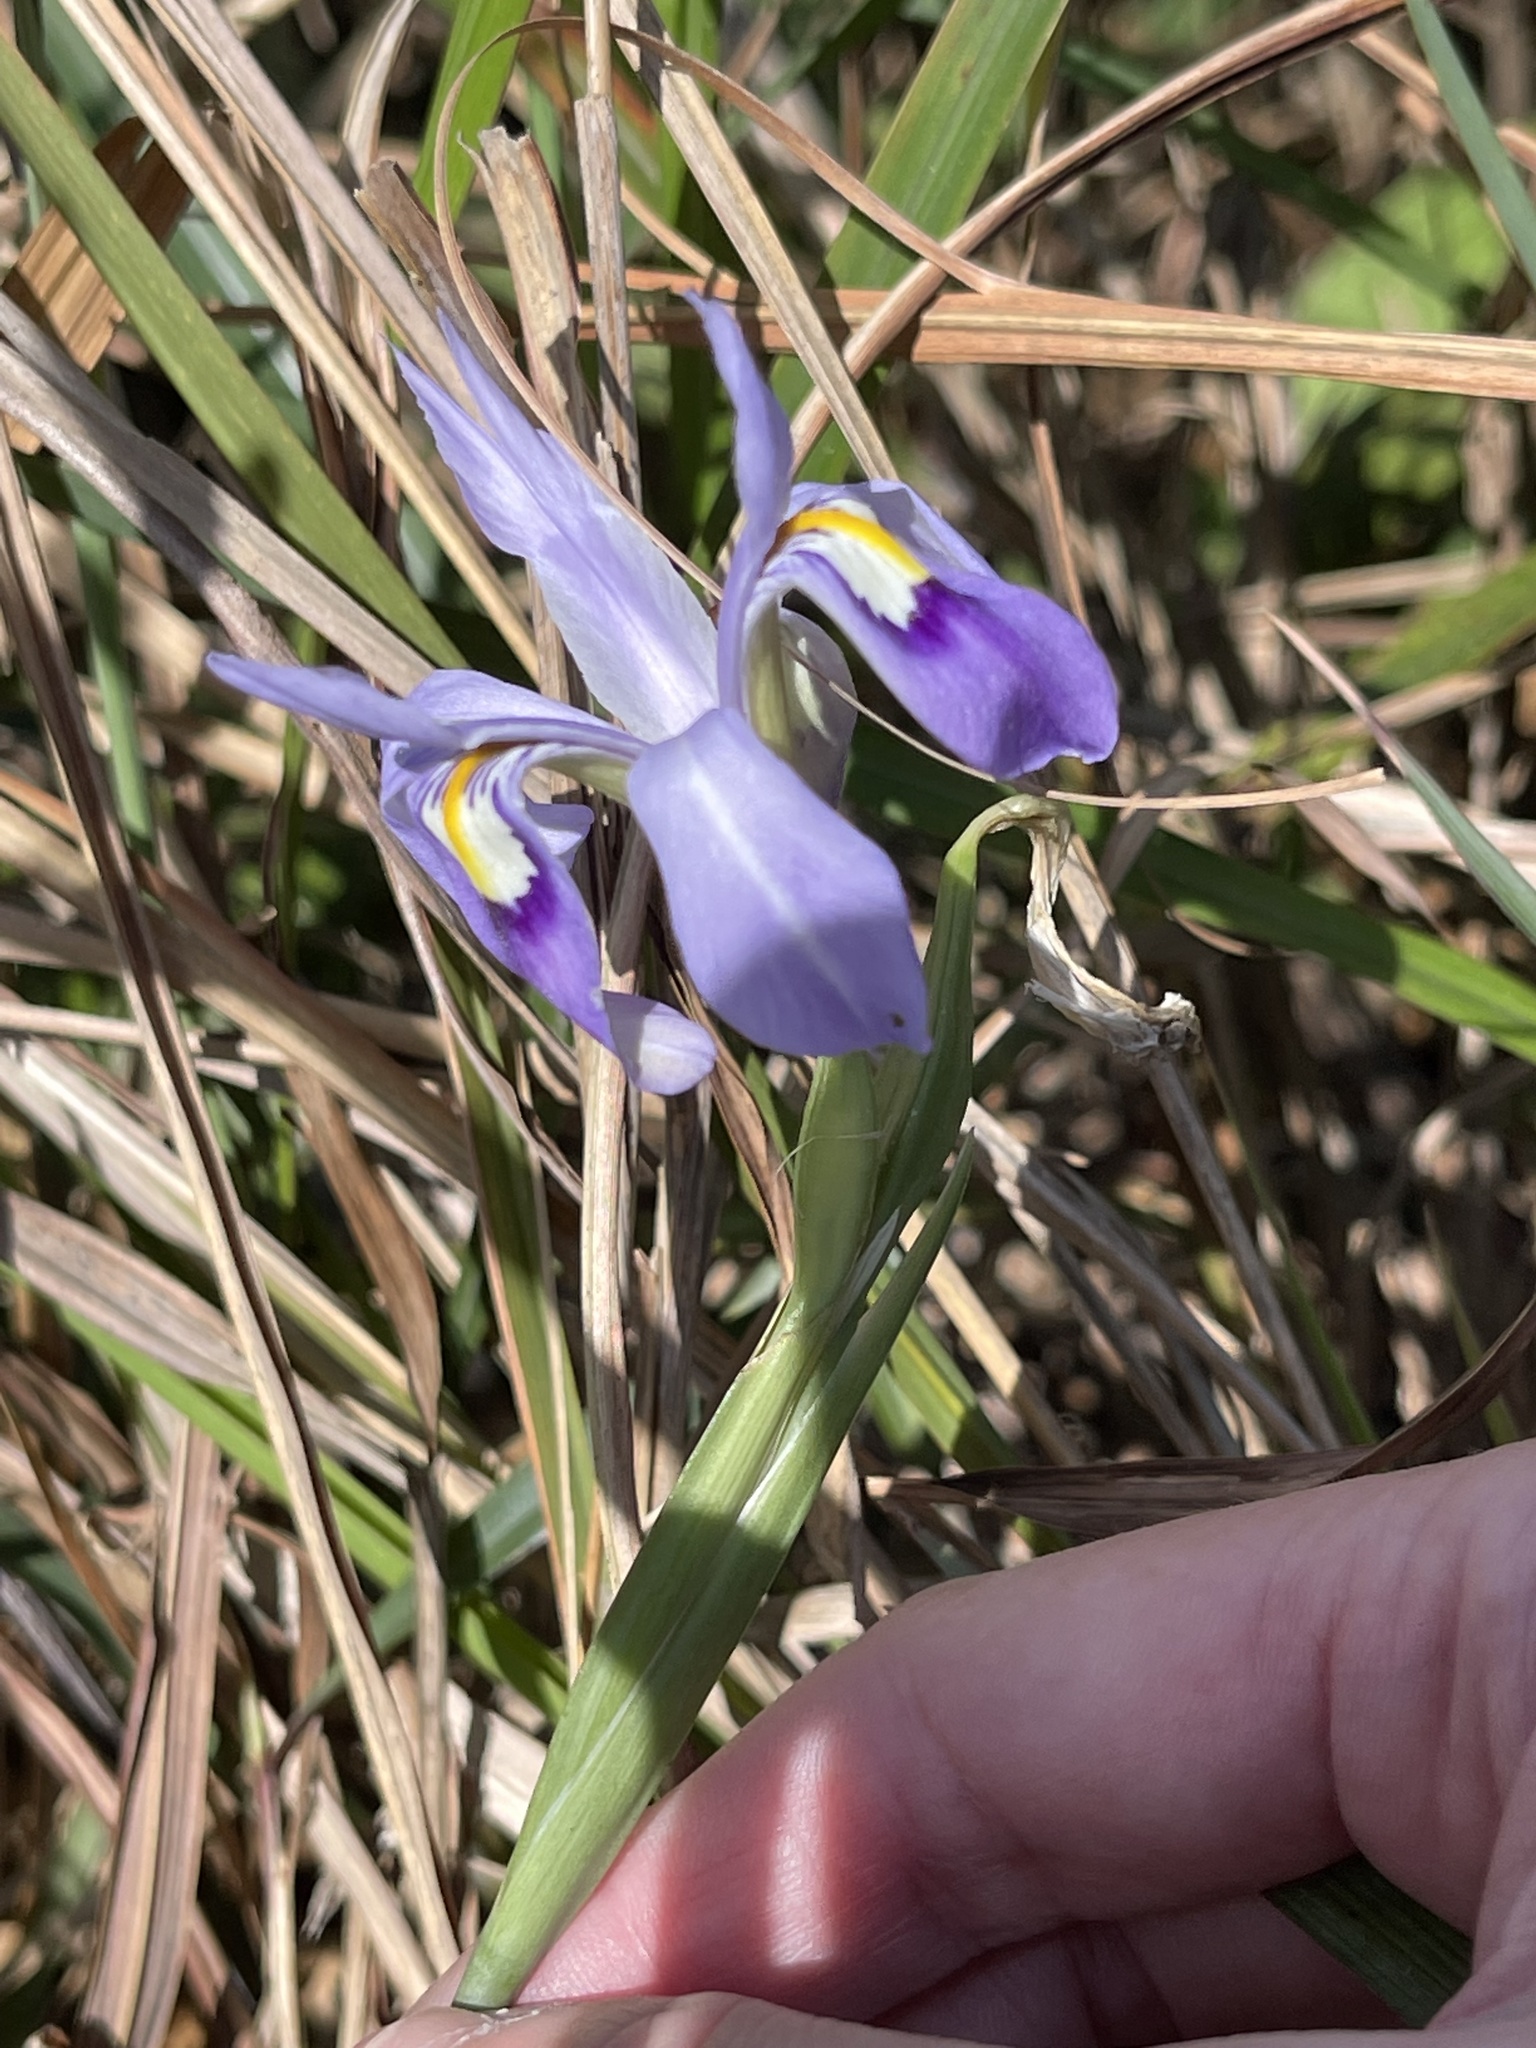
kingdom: Plantae
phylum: Tracheophyta
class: Liliopsida
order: Asparagales
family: Iridaceae
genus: Iris
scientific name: Iris speculatrix
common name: Small-flower iris
